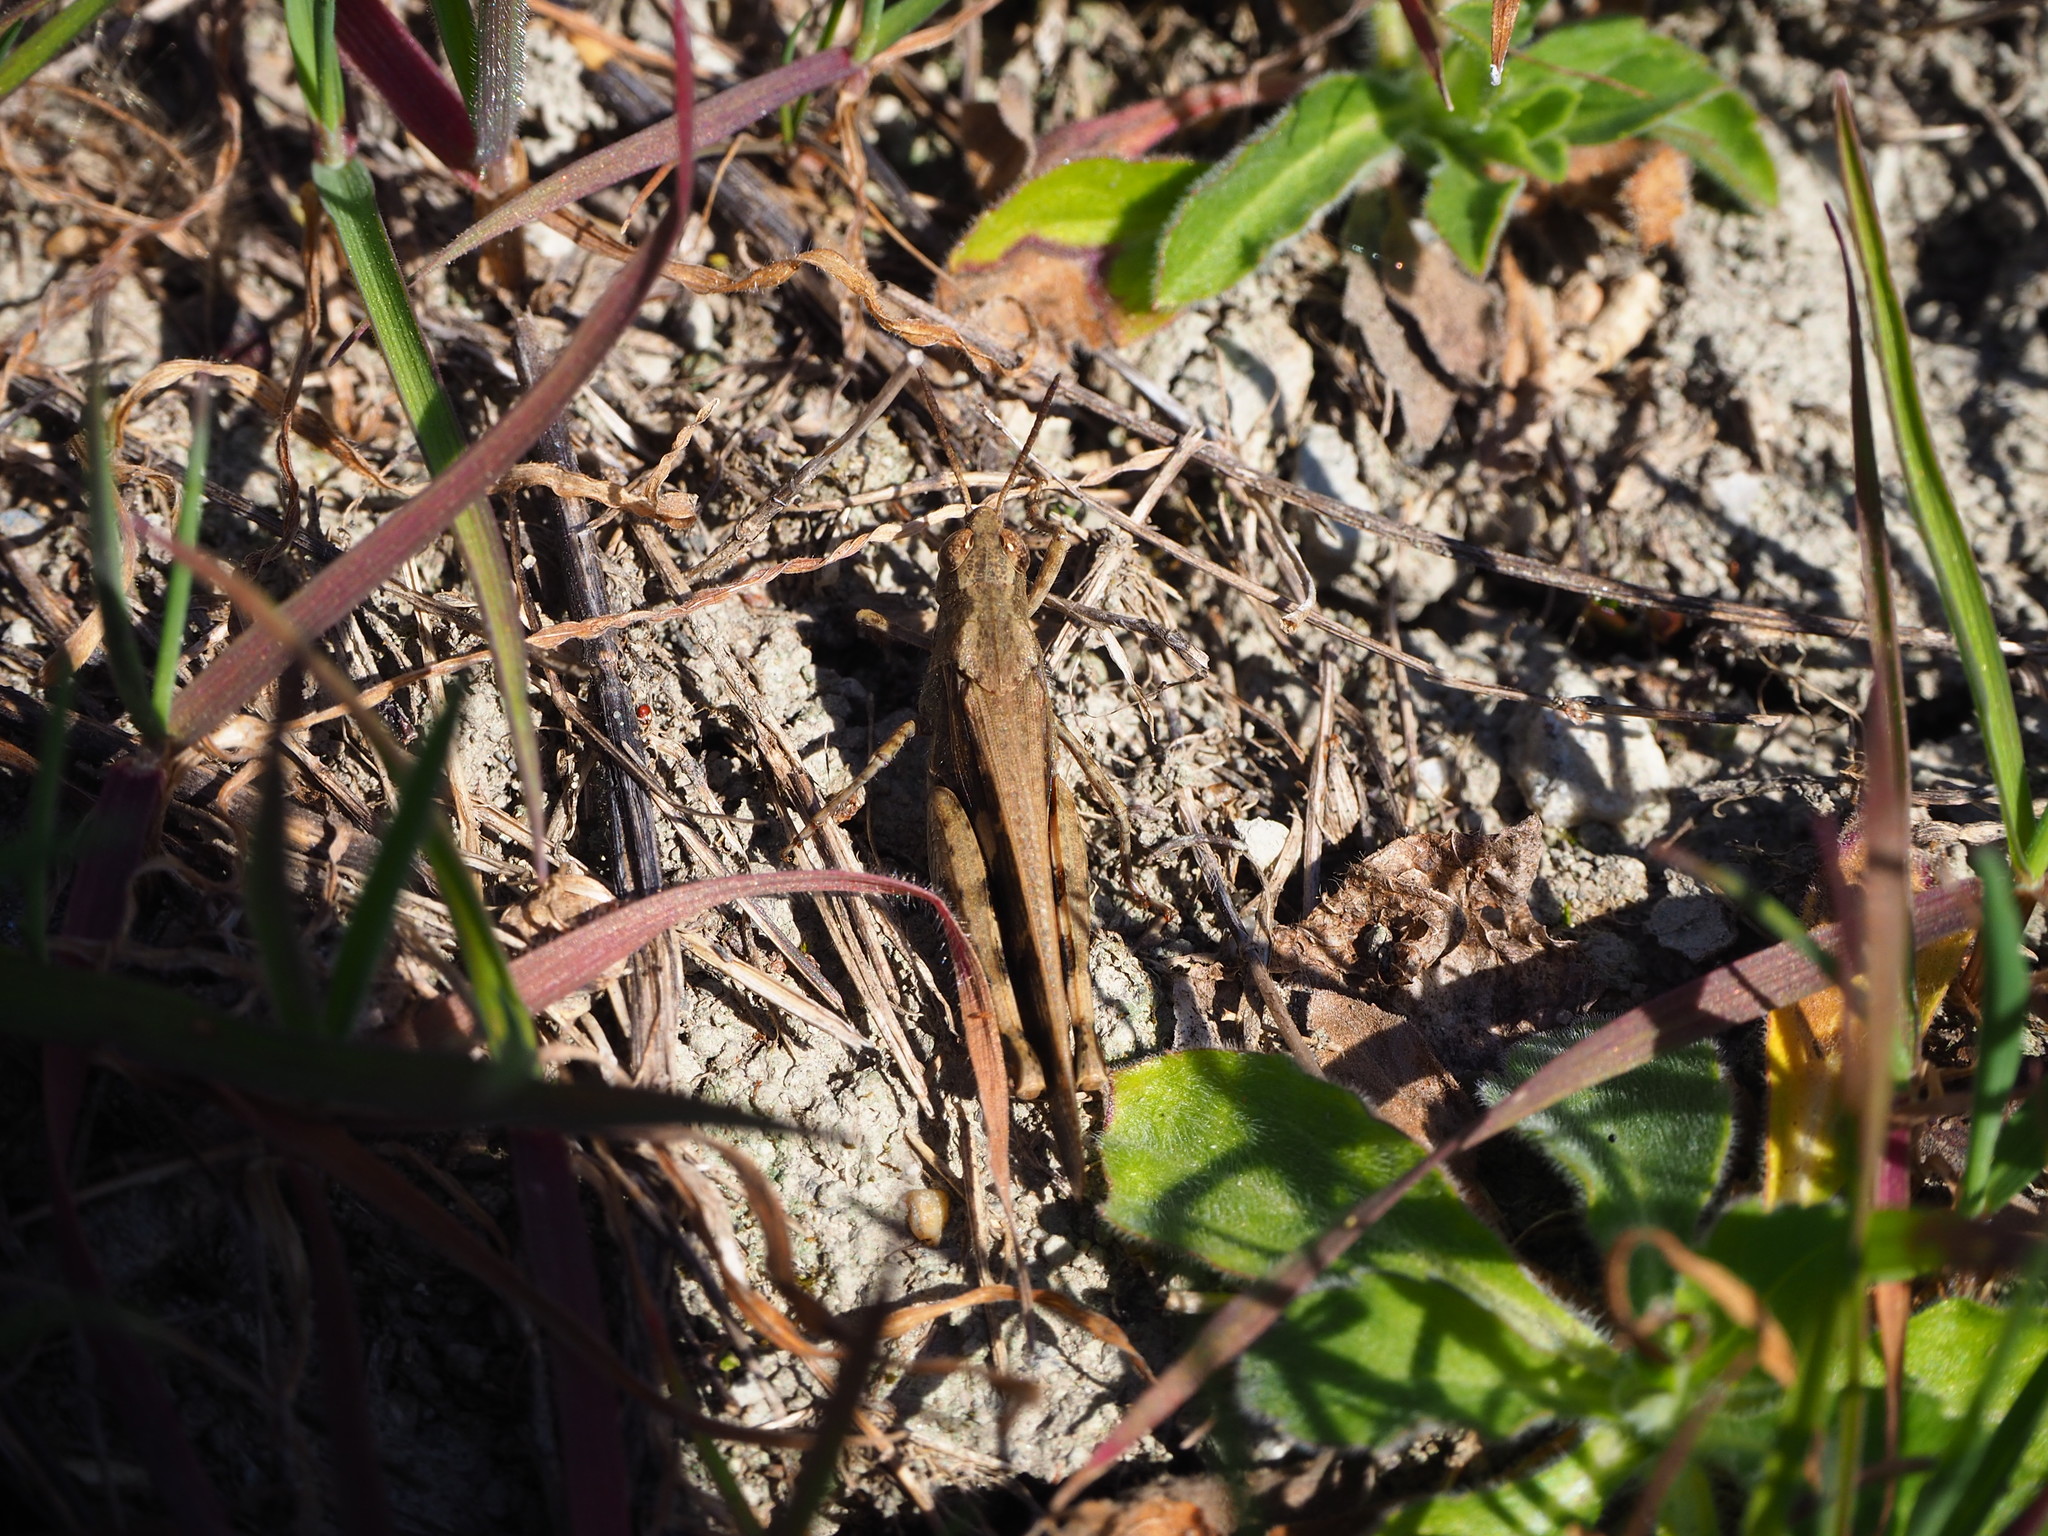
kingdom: Animalia
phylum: Arthropoda
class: Insecta
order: Orthoptera
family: Acrididae
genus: Aiolopus
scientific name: Aiolopus strepens
